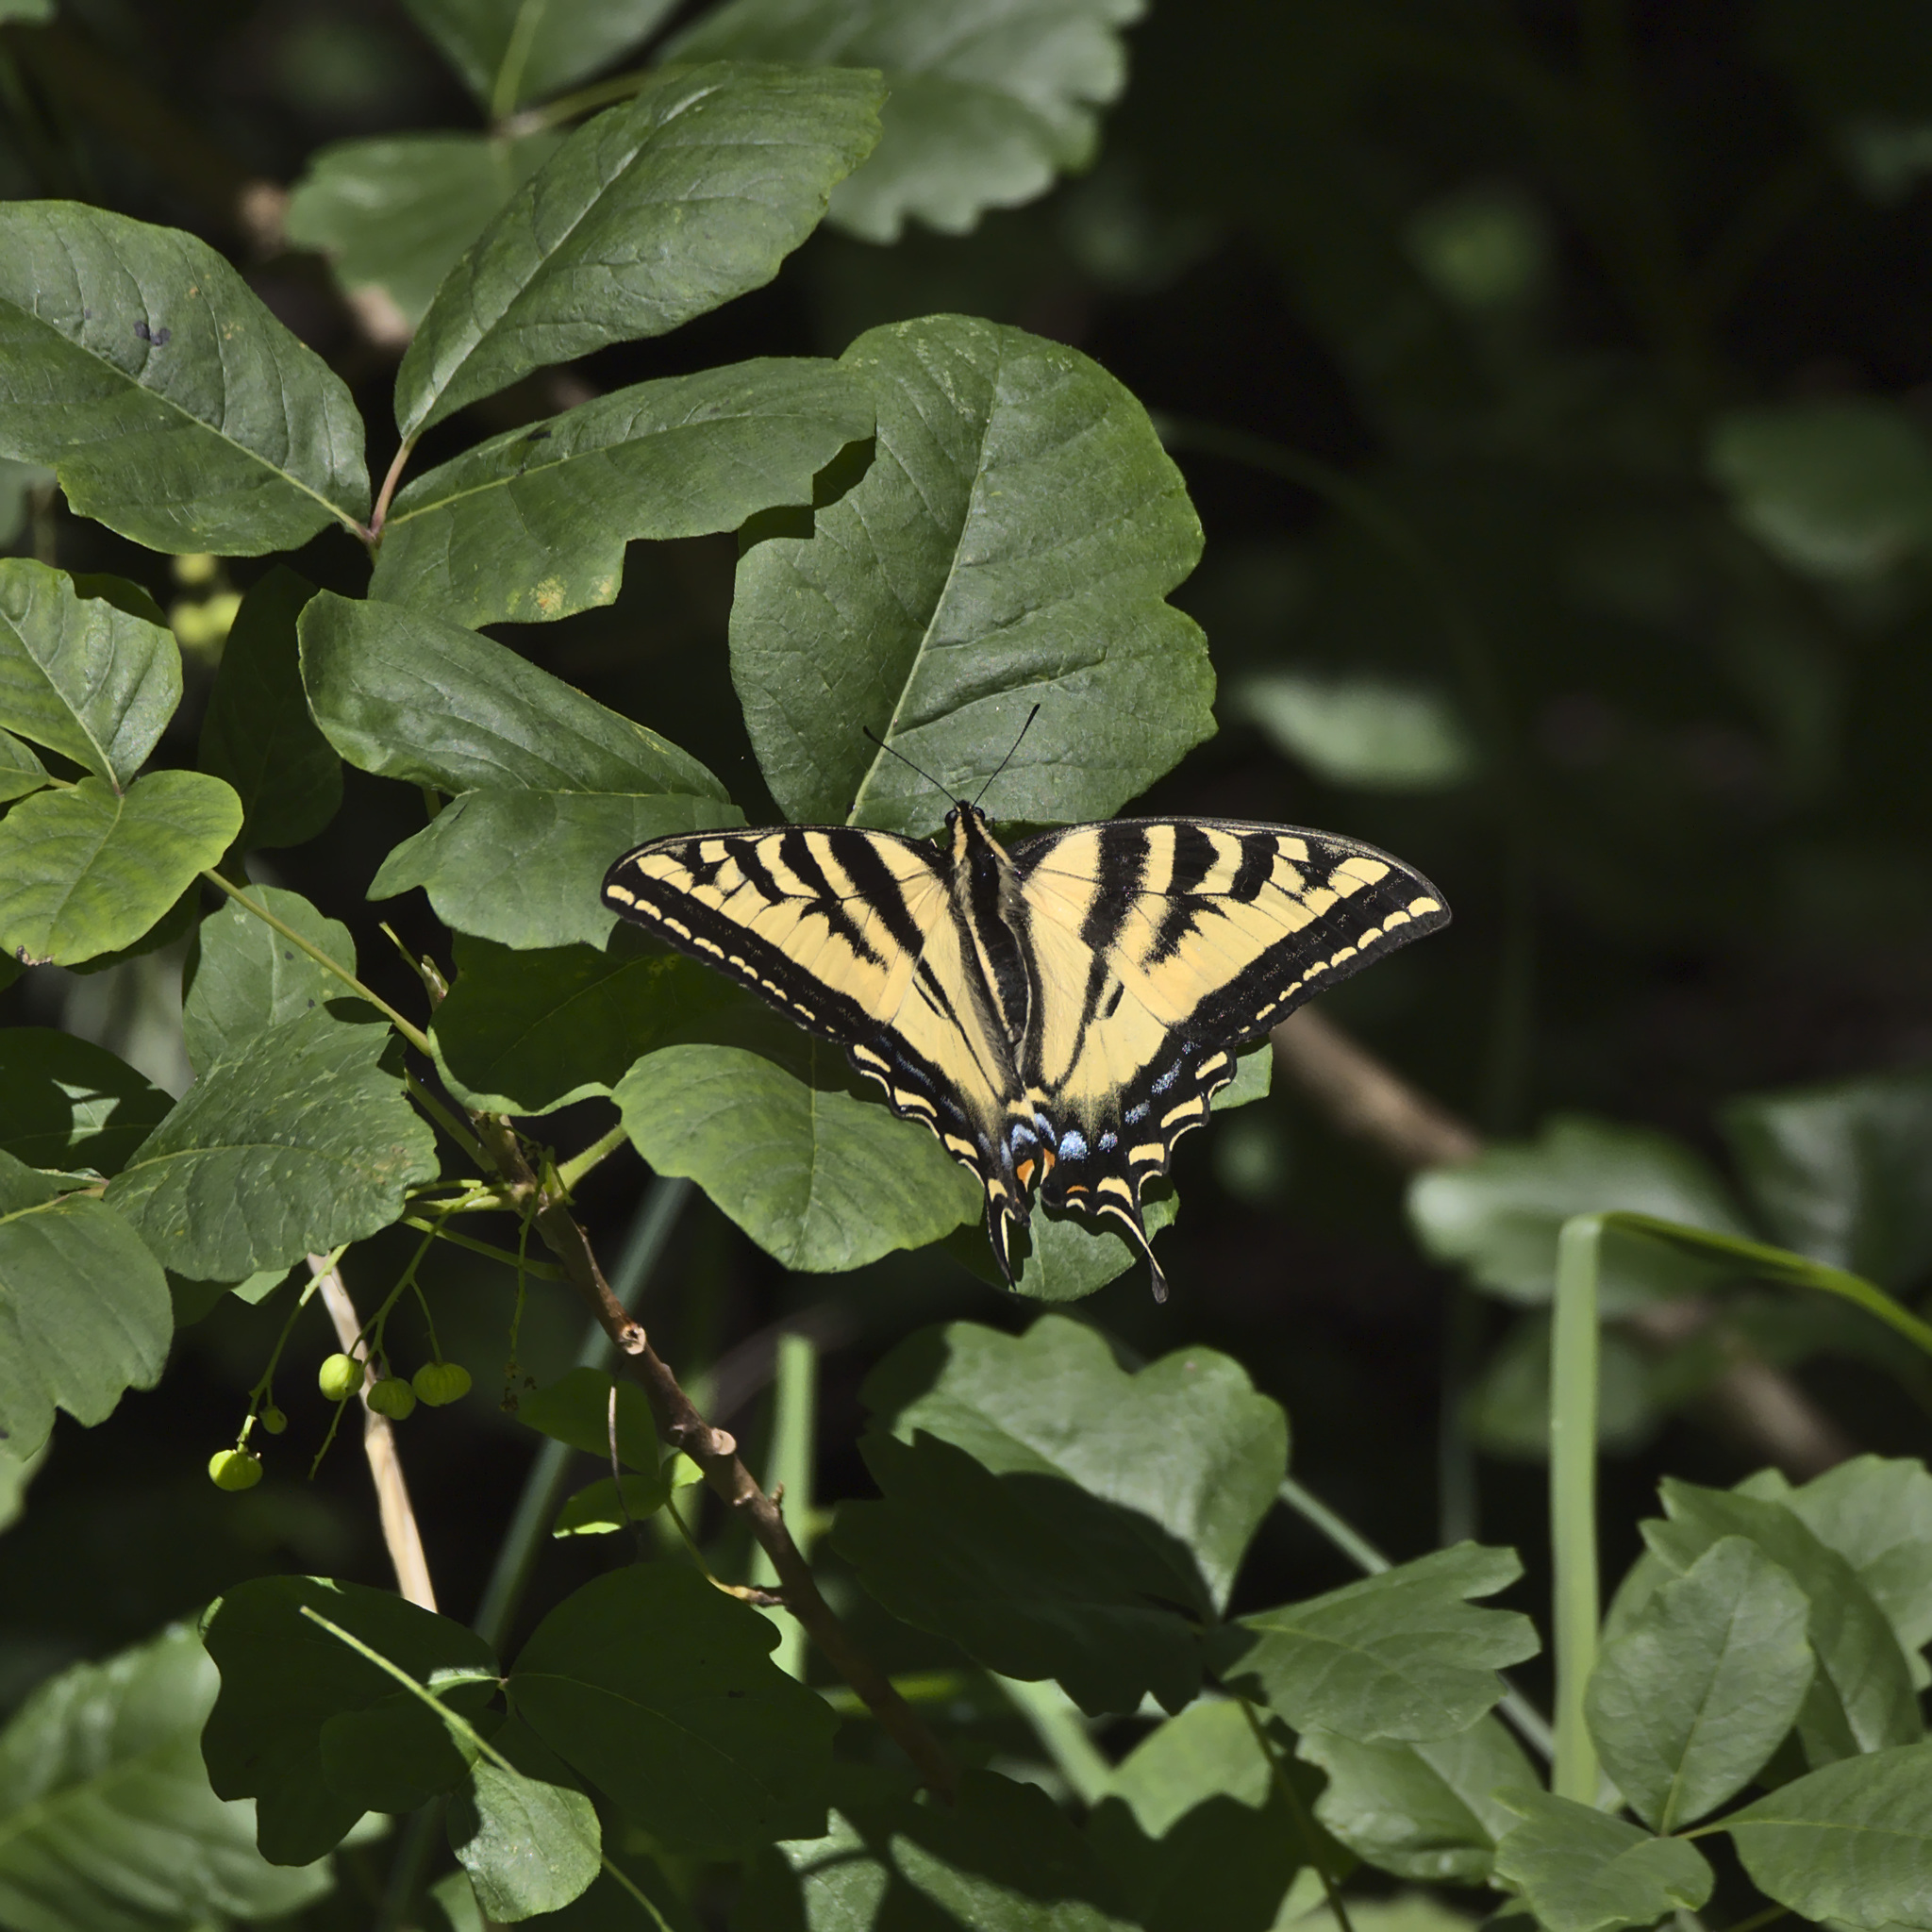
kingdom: Animalia
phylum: Arthropoda
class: Insecta
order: Lepidoptera
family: Papilionidae
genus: Papilio
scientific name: Papilio rutulus
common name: Western tiger swallowtail
